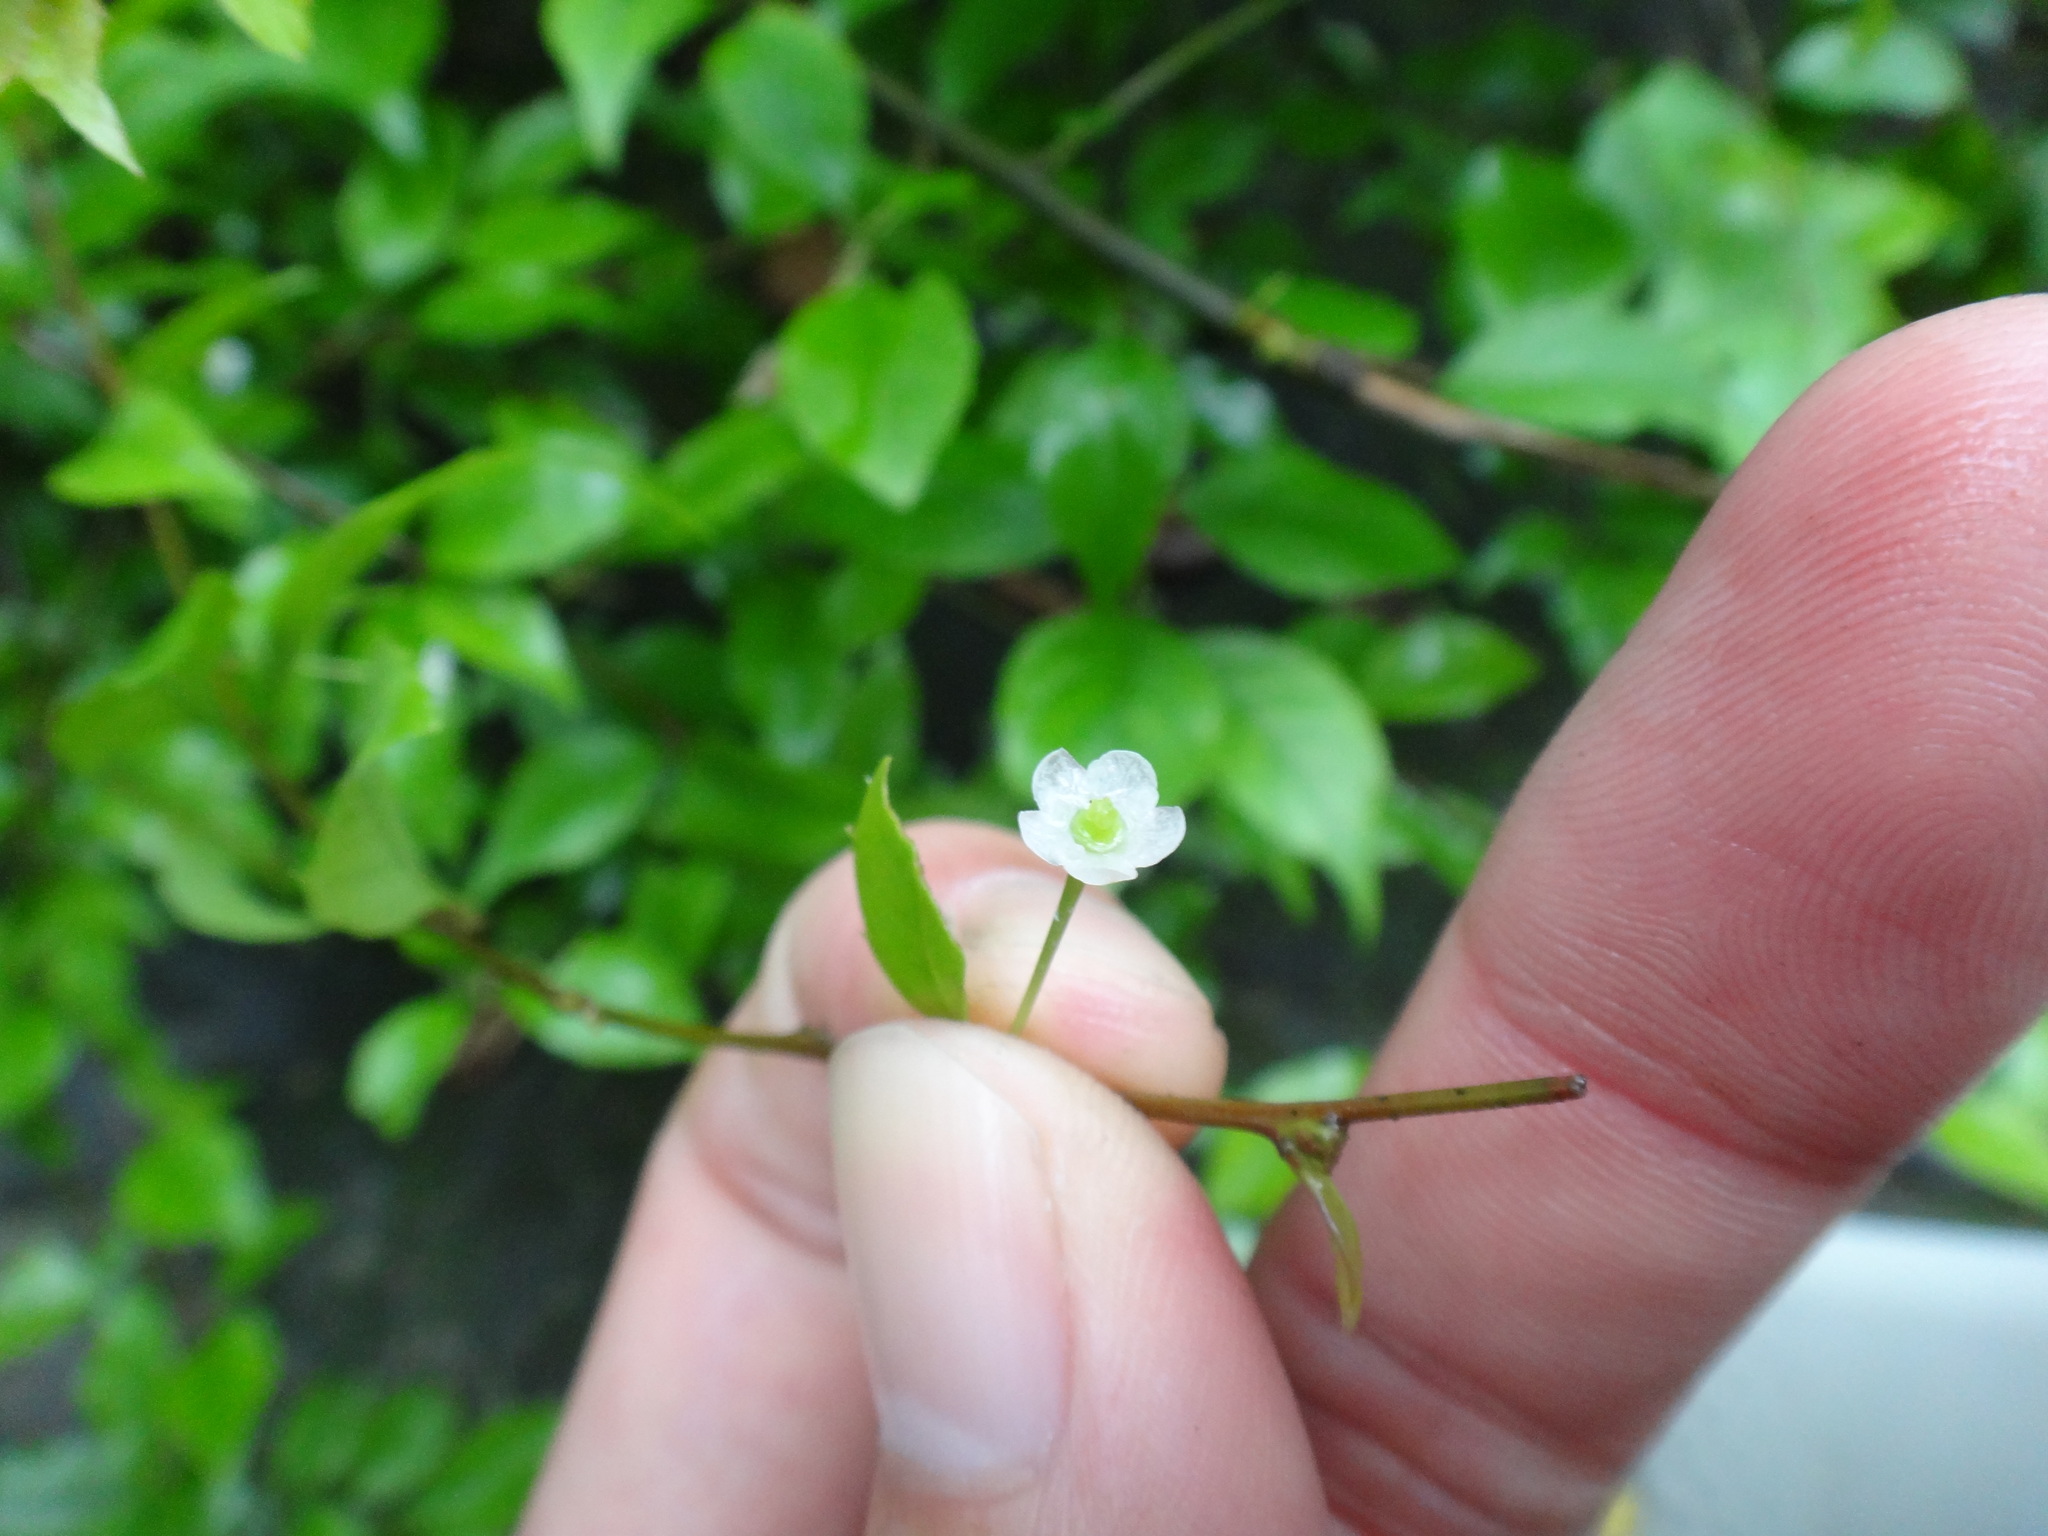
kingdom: Plantae
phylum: Tracheophyta
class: Magnoliopsida
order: Aquifoliales
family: Aquifoliaceae
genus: Ilex
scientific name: Ilex asprella
